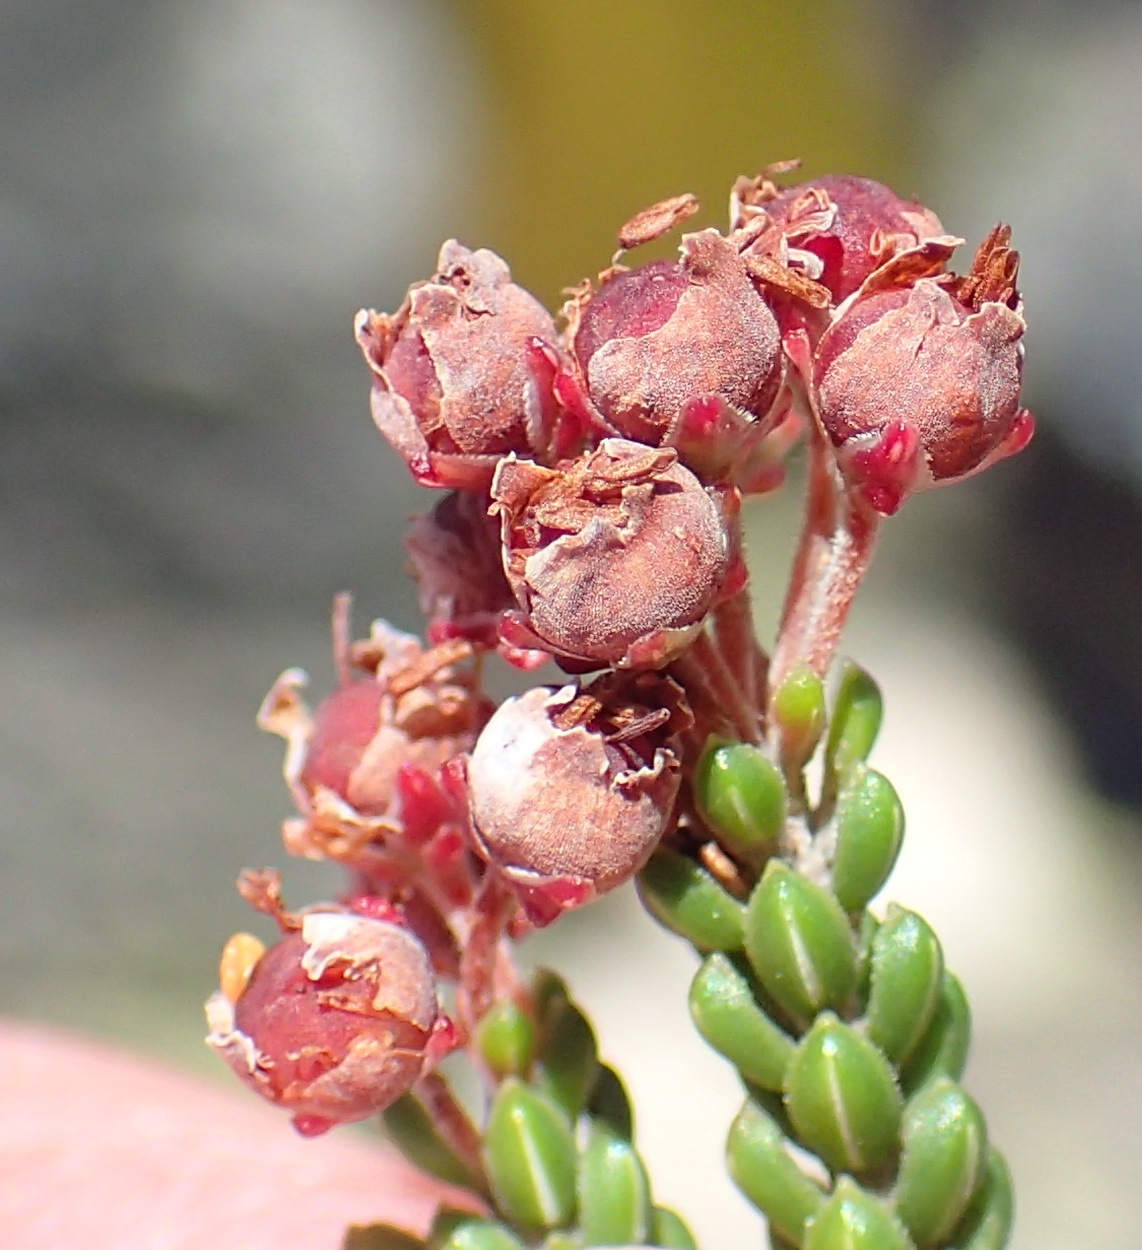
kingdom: Plantae
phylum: Tracheophyta
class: Magnoliopsida
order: Ericales
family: Ericaceae
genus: Erica
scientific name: Erica petraea
